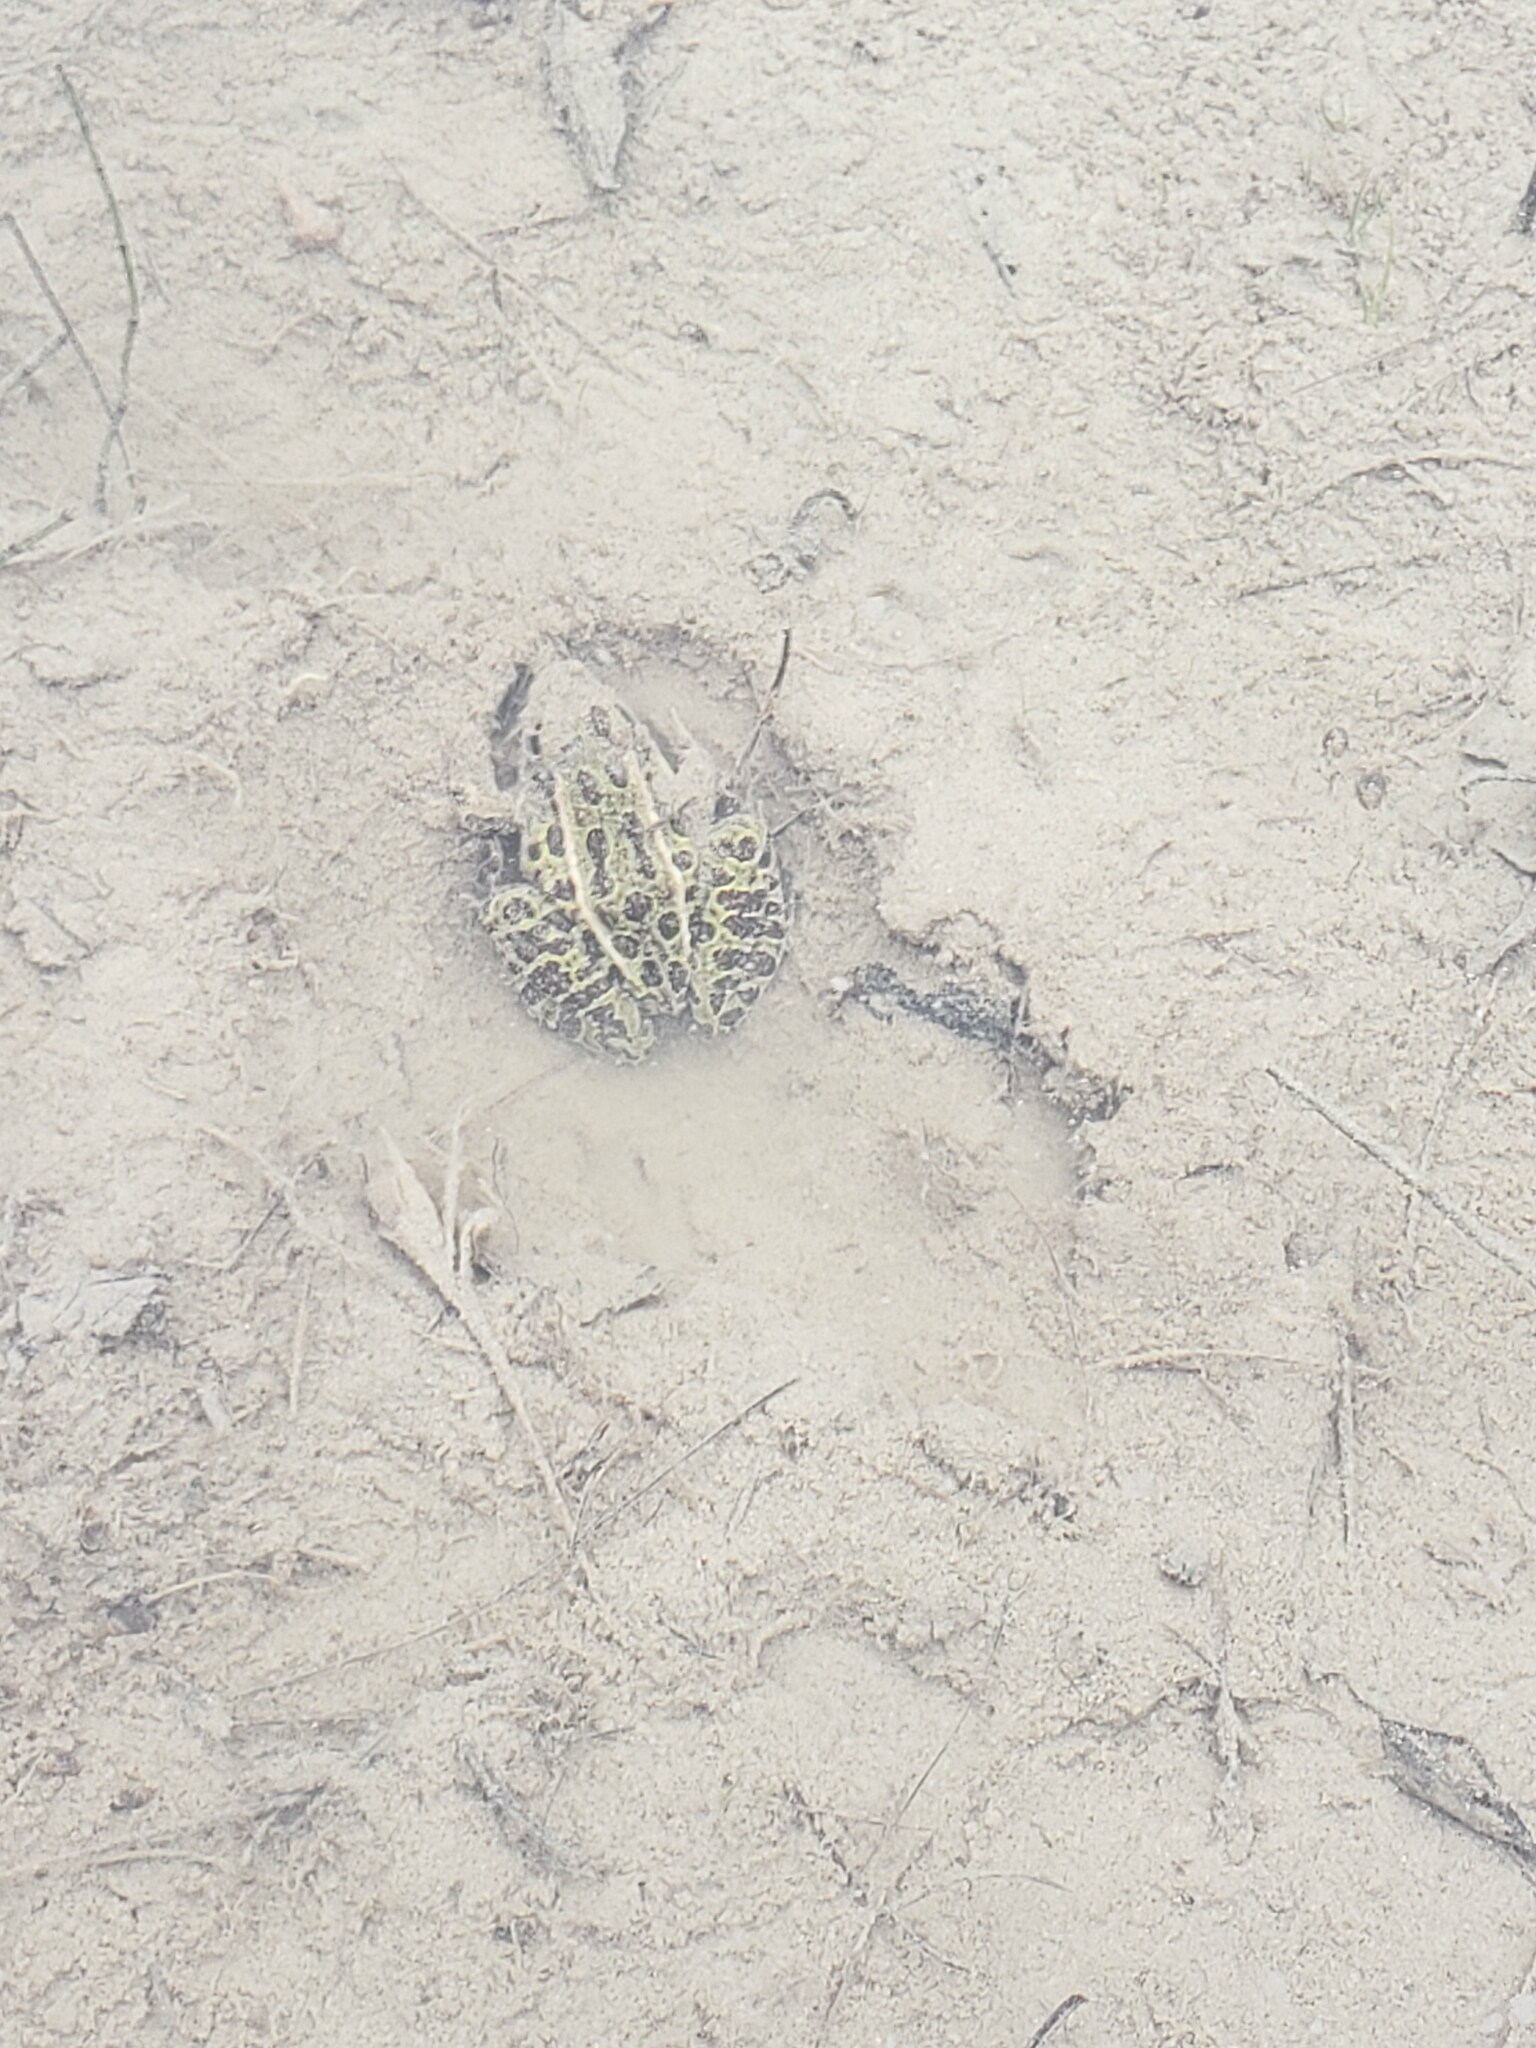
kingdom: Animalia
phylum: Chordata
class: Amphibia
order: Anura
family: Ranidae
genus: Lithobates
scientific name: Lithobates pipiens
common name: Northern leopard frog
